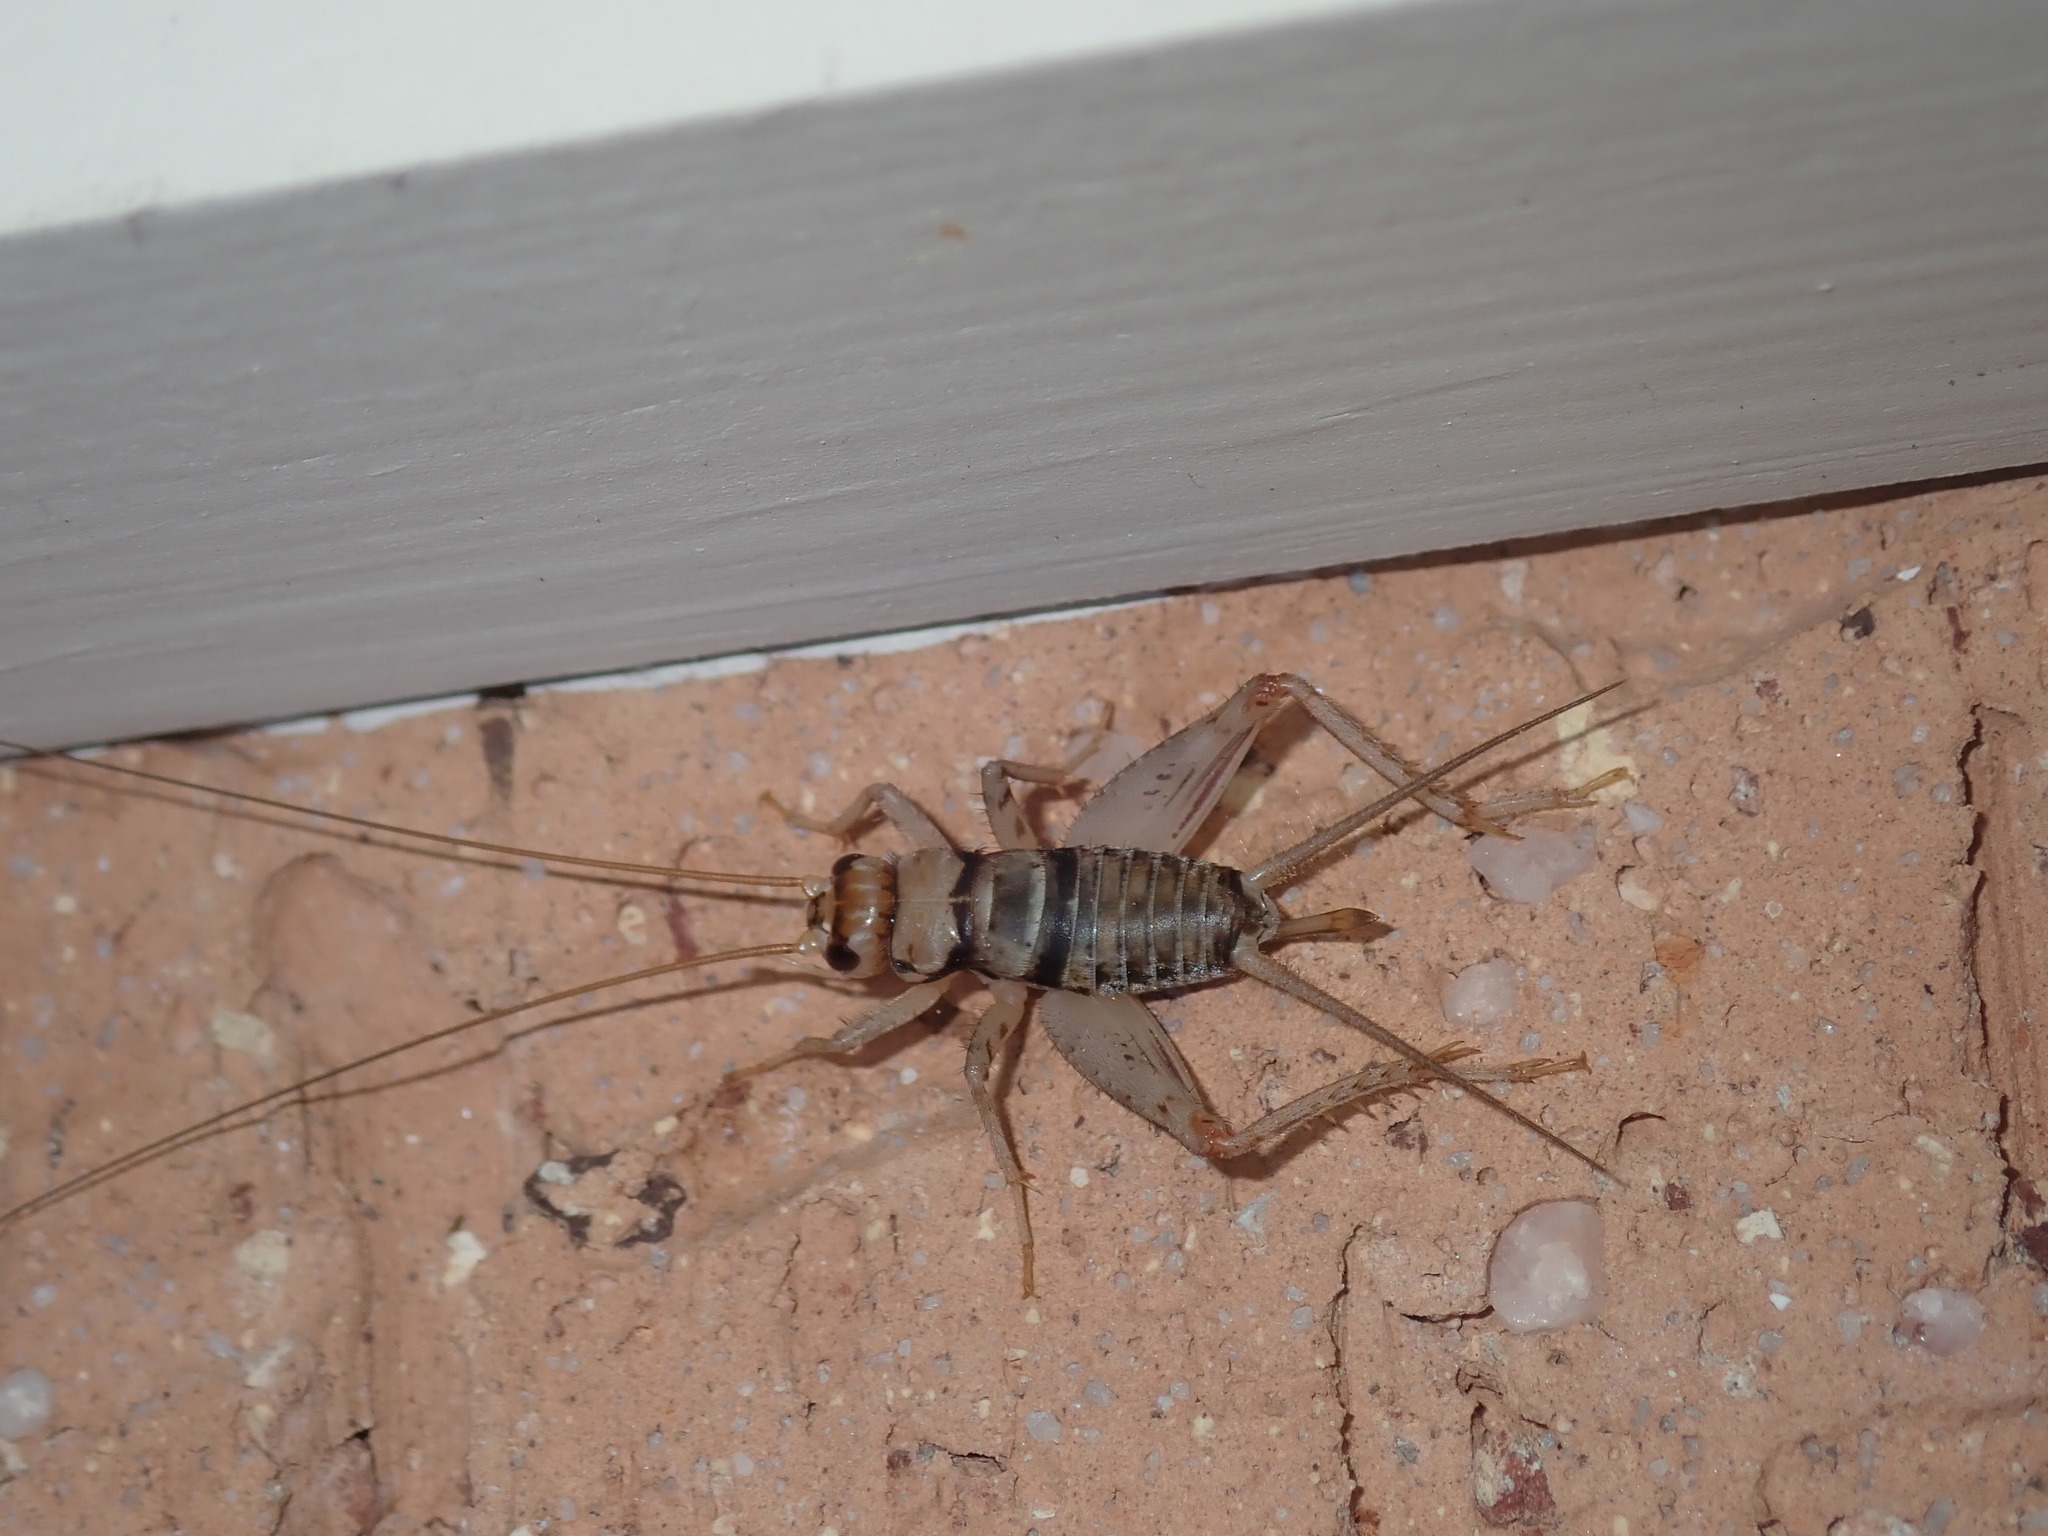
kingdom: Animalia
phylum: Arthropoda
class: Insecta
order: Orthoptera
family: Gryllidae
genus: Gryllodes
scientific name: Gryllodes sigillatus
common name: Tropical house cricket
